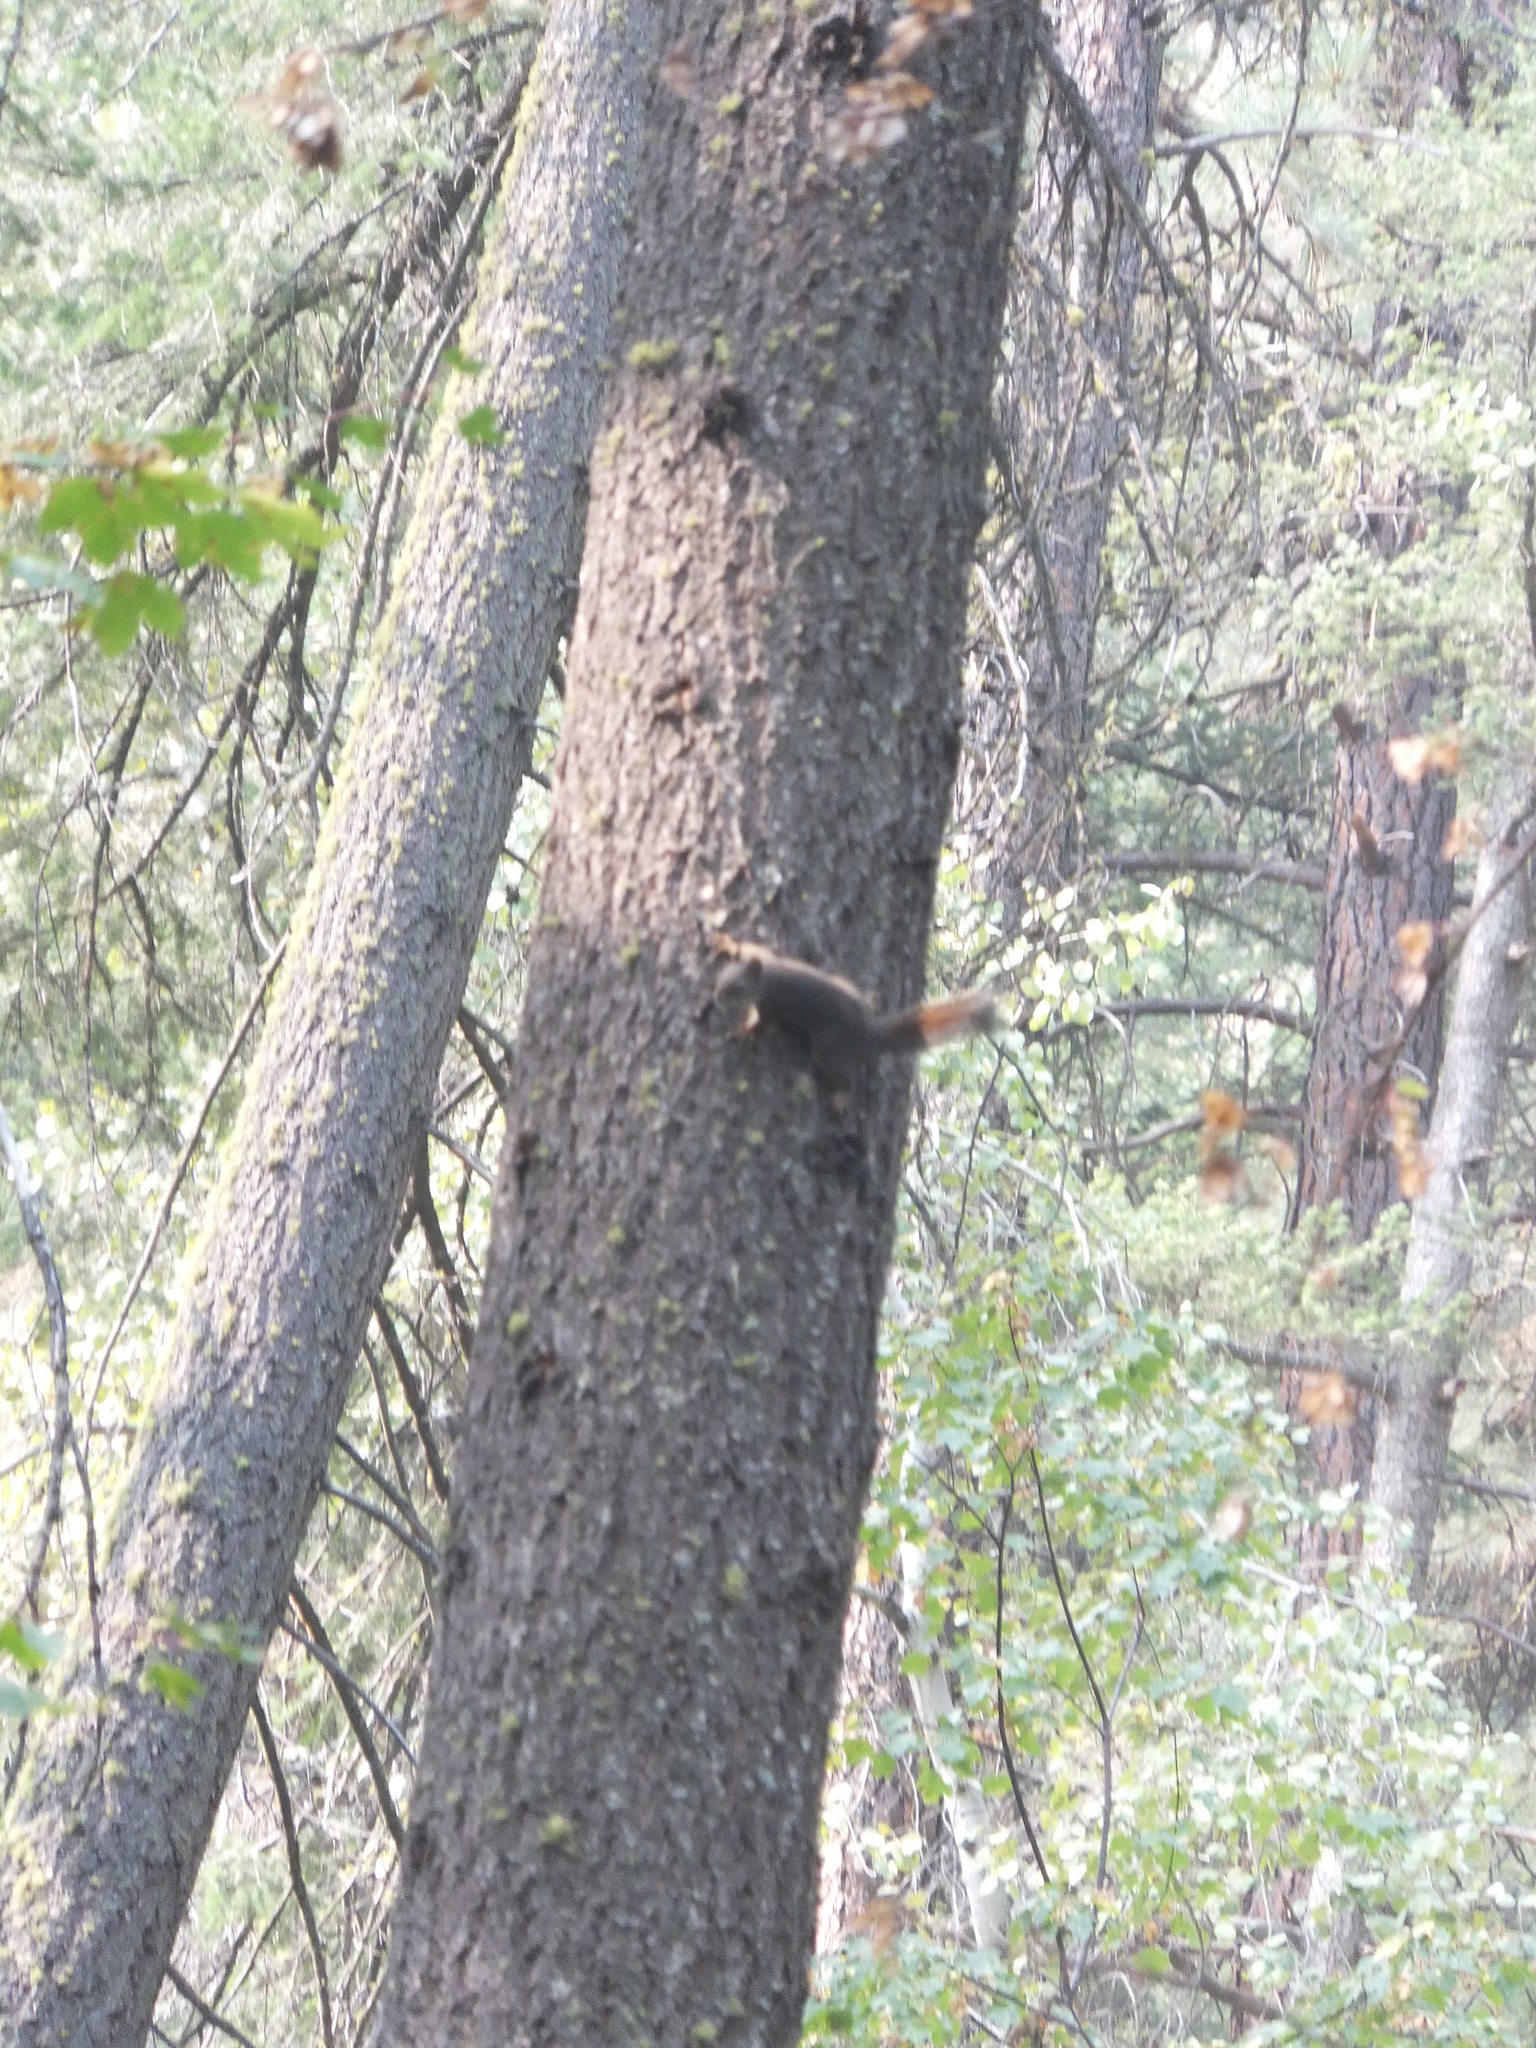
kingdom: Animalia
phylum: Chordata
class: Mammalia
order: Rodentia
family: Sciuridae
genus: Tamiasciurus
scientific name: Tamiasciurus hudsonicus
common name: Red squirrel
